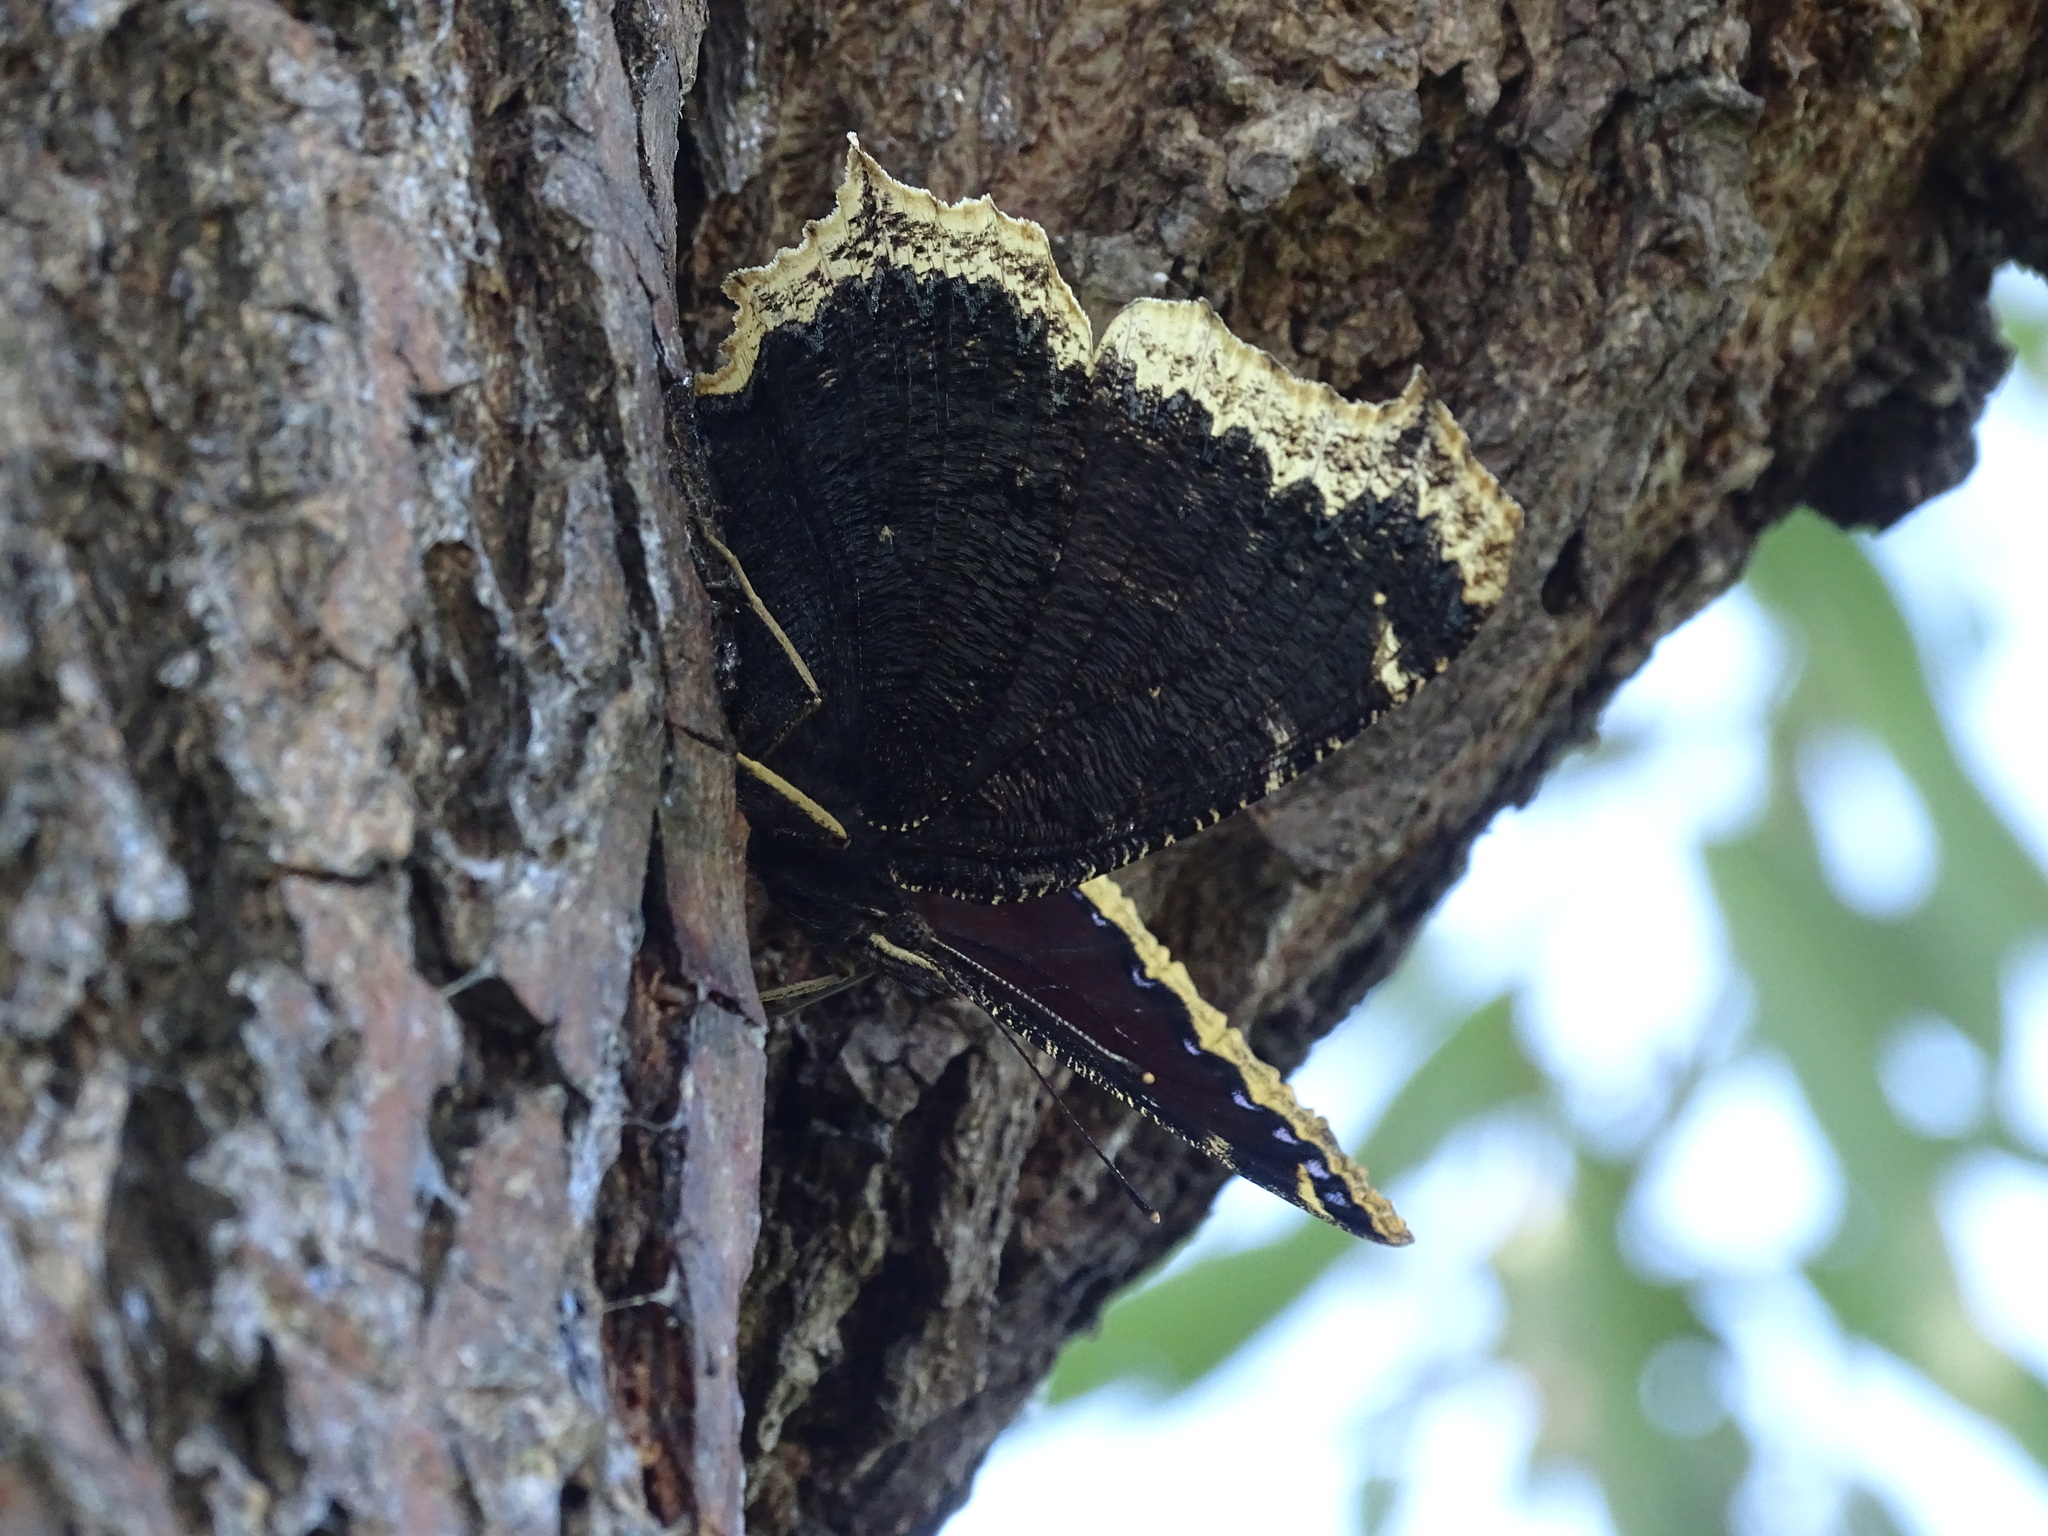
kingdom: Animalia
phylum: Arthropoda
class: Insecta
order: Lepidoptera
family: Nymphalidae
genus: Nymphalis
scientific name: Nymphalis antiopa
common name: Camberwell beauty
